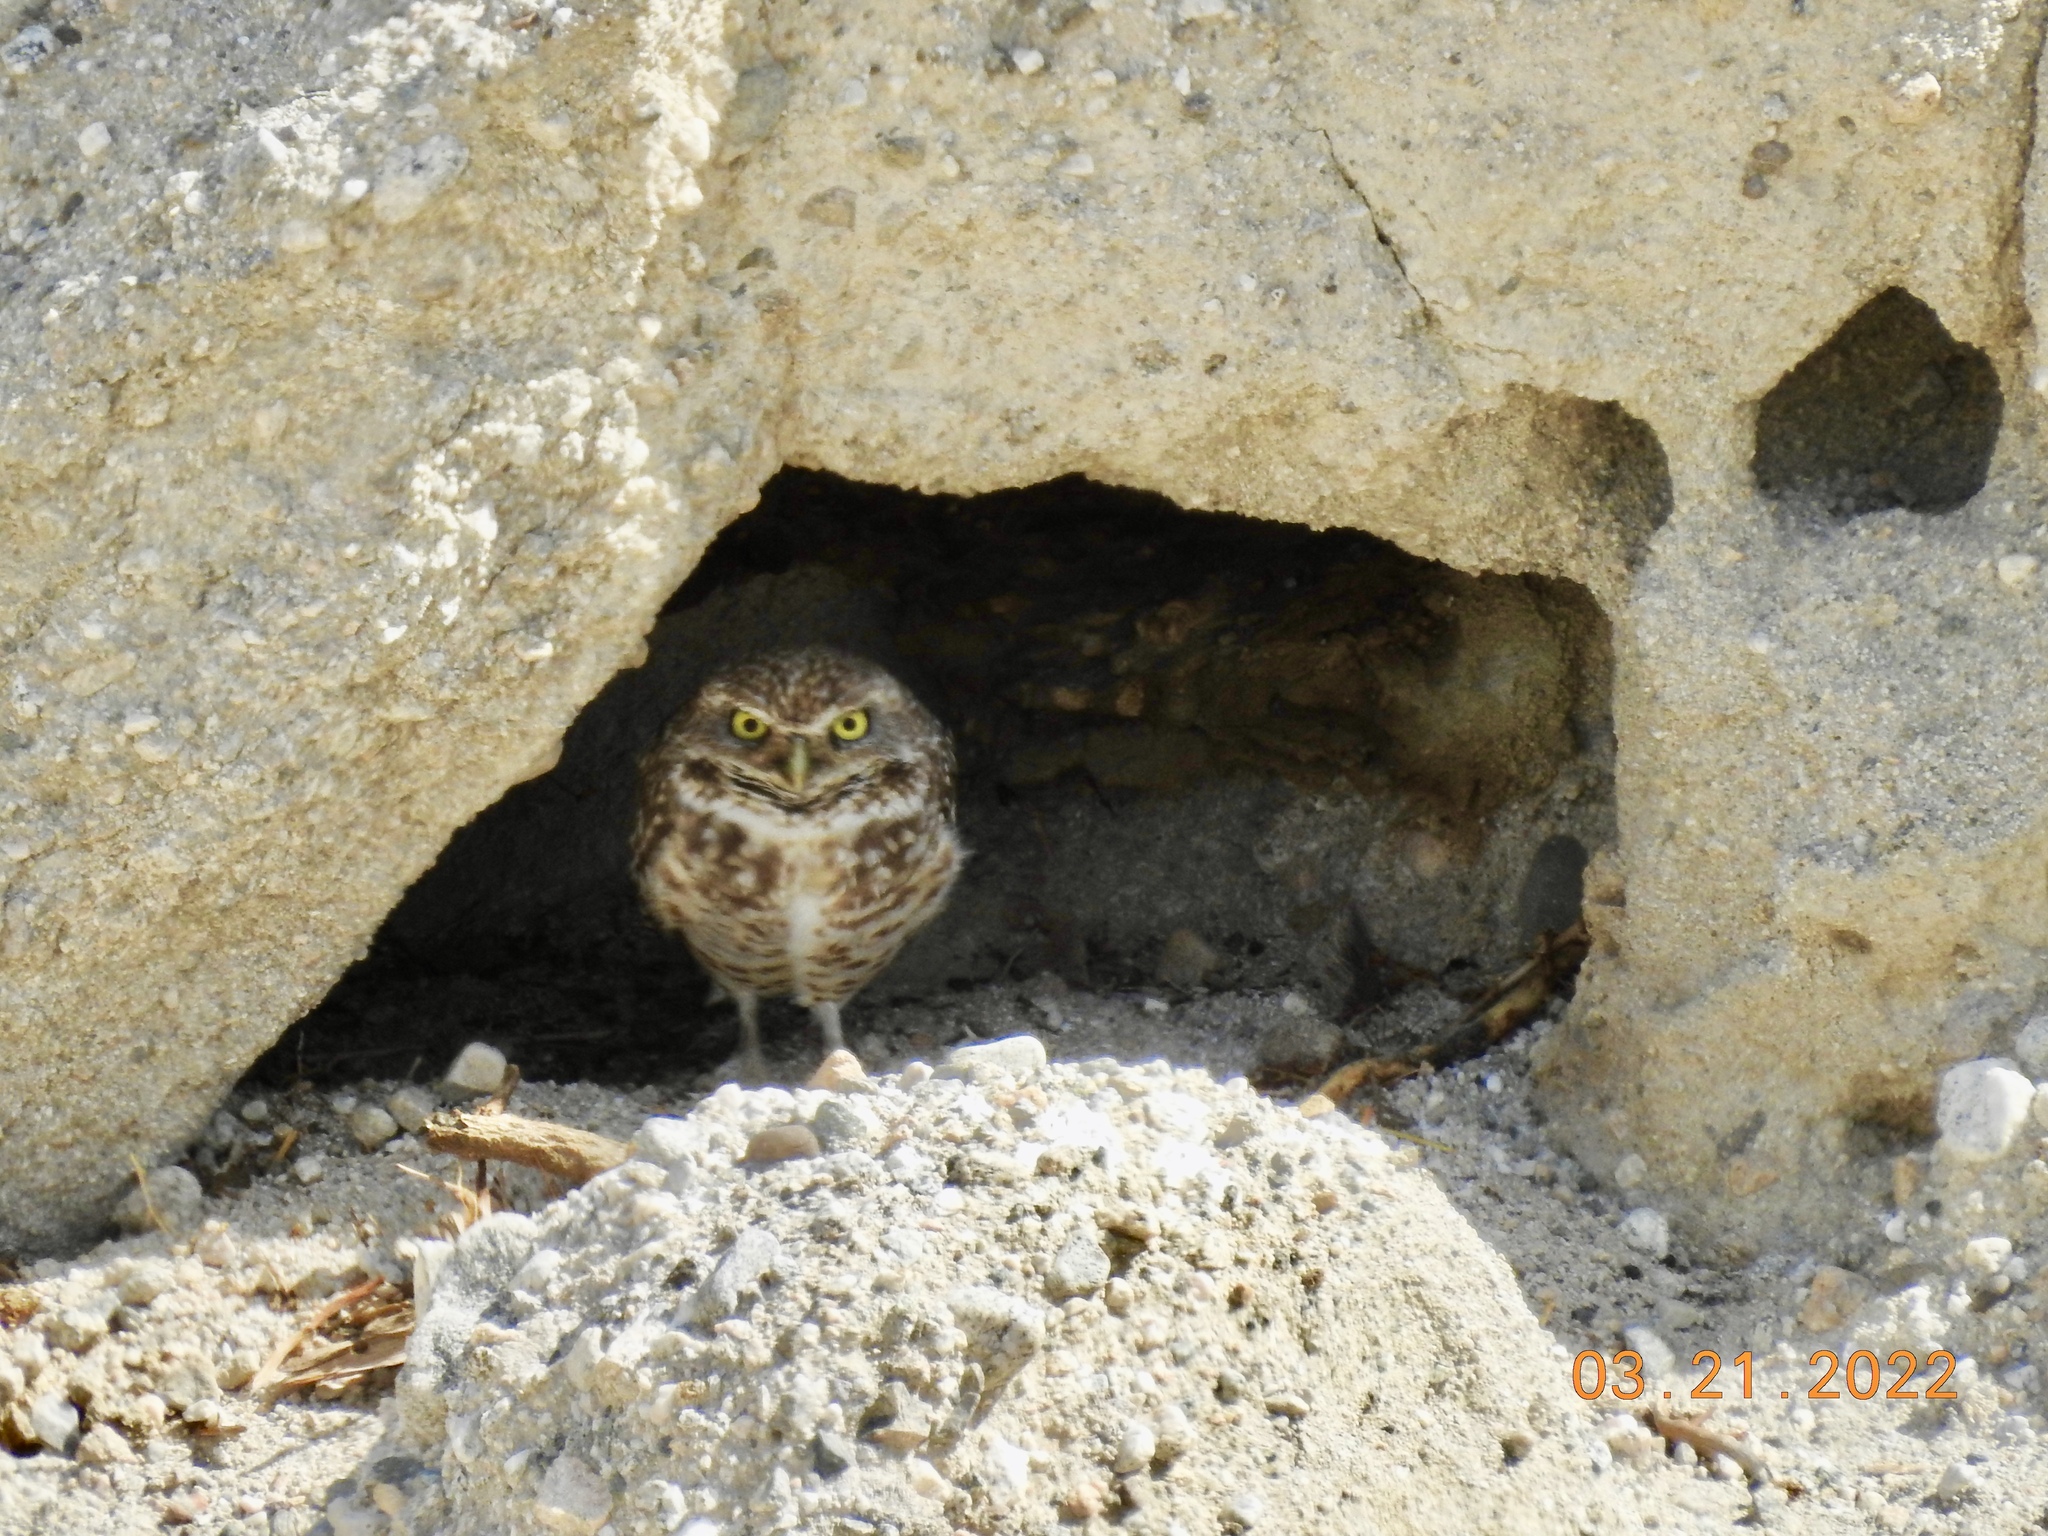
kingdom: Animalia
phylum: Chordata
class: Aves
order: Strigiformes
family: Strigidae
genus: Athene
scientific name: Athene cunicularia
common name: Burrowing owl
